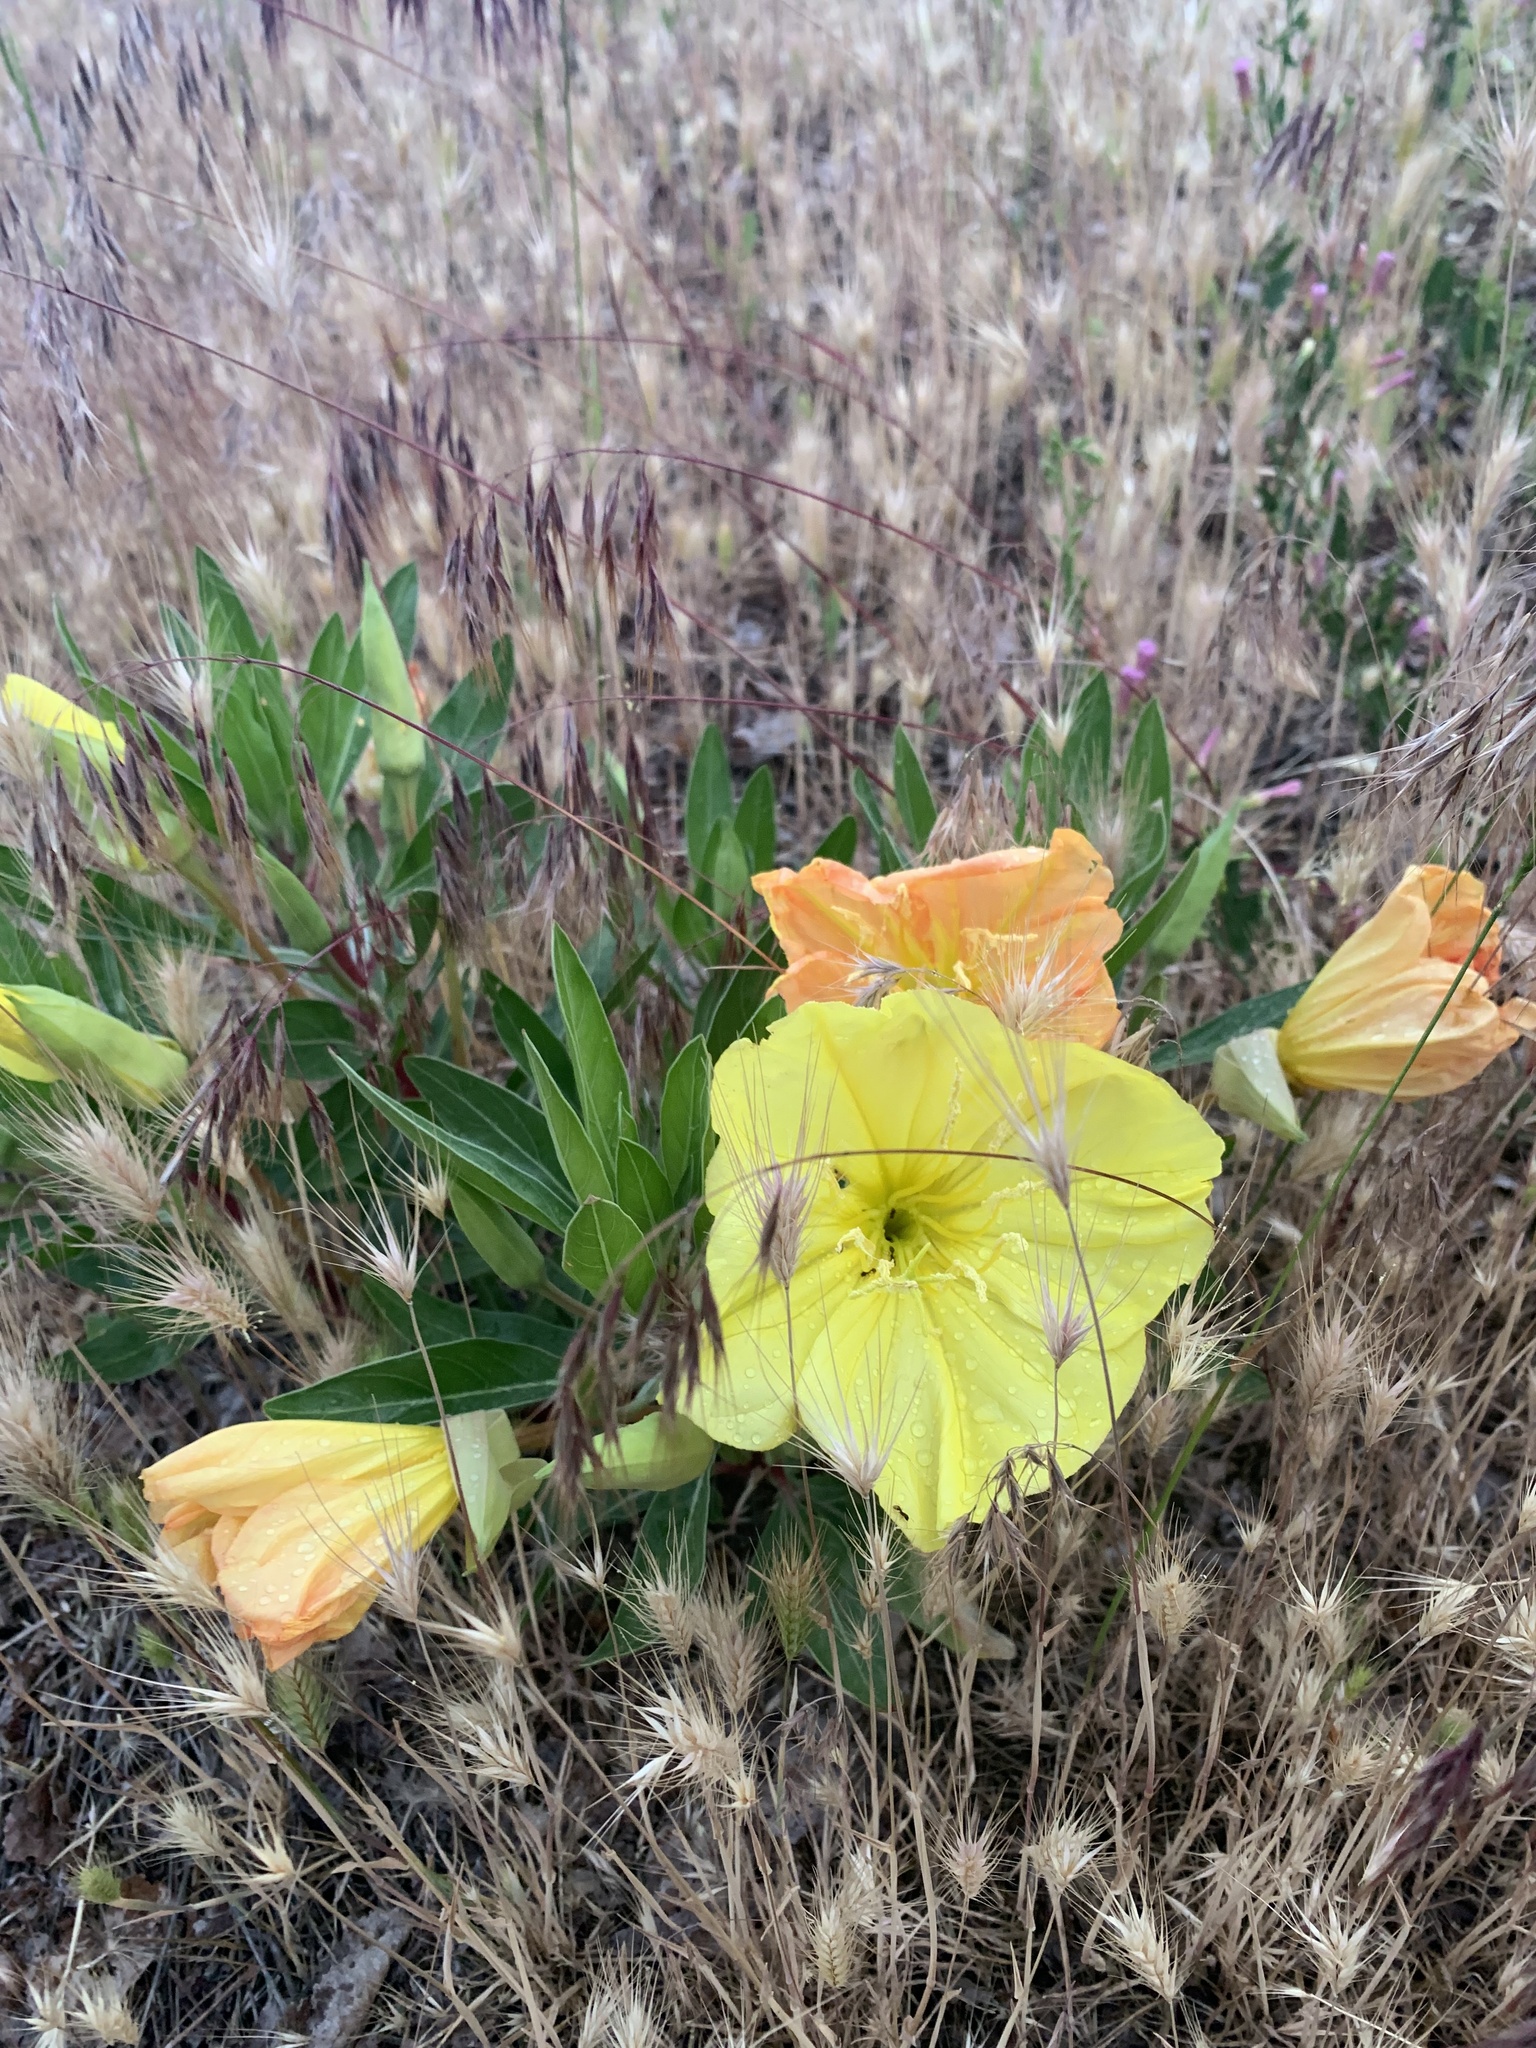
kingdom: Plantae
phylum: Tracheophyta
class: Magnoliopsida
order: Myrtales
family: Onagraceae
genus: Oenothera
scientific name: Oenothera macrocarpa
